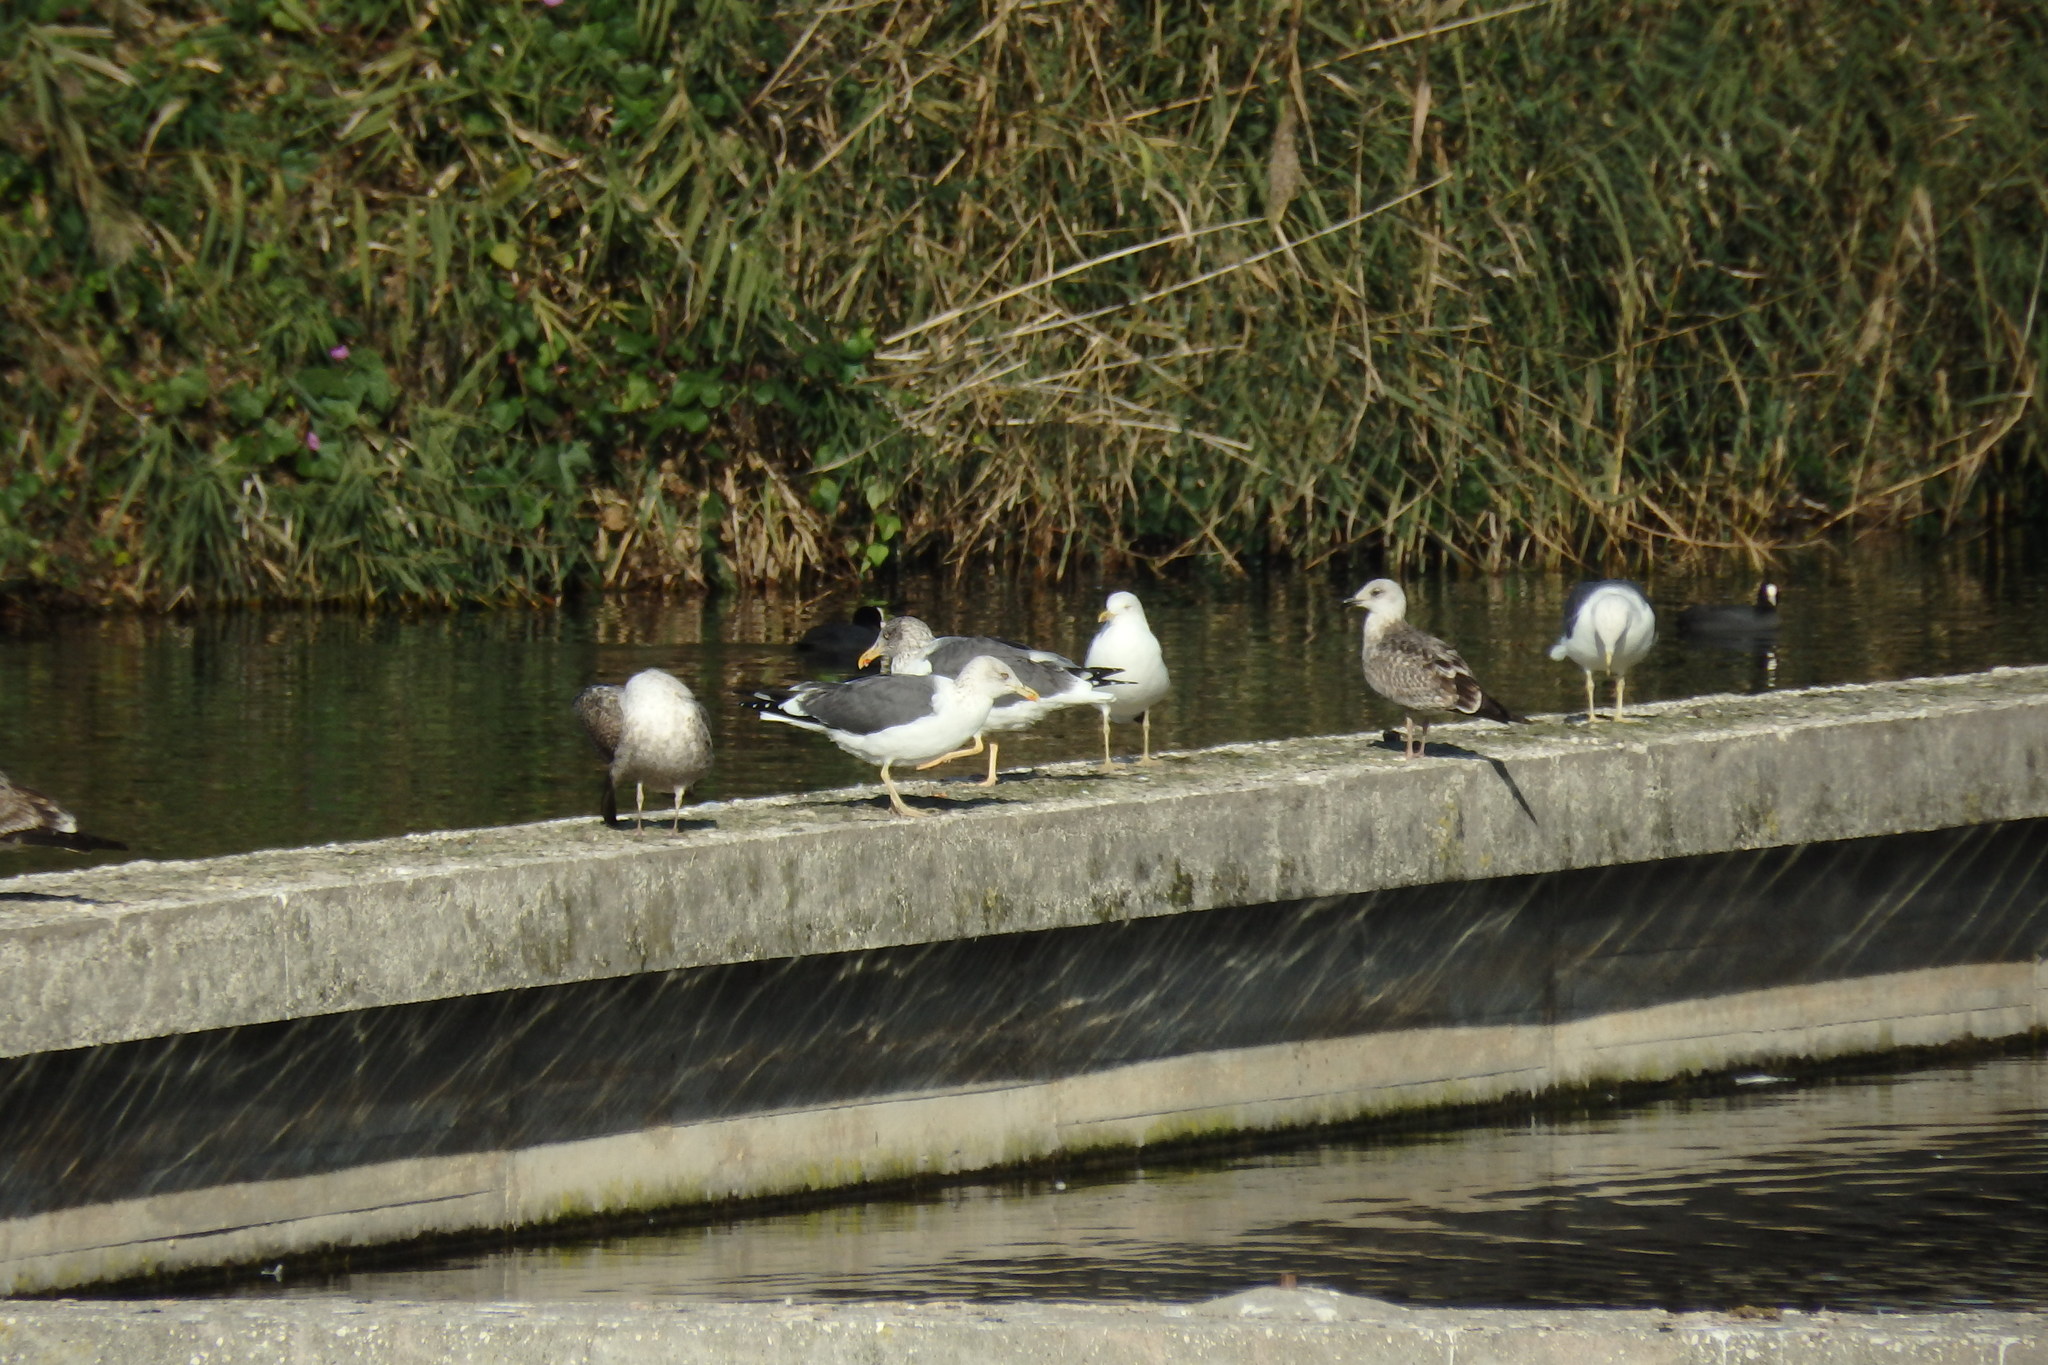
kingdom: Animalia
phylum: Chordata
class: Aves
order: Charadriiformes
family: Laridae
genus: Larus
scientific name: Larus fuscus
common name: Lesser black-backed gull
